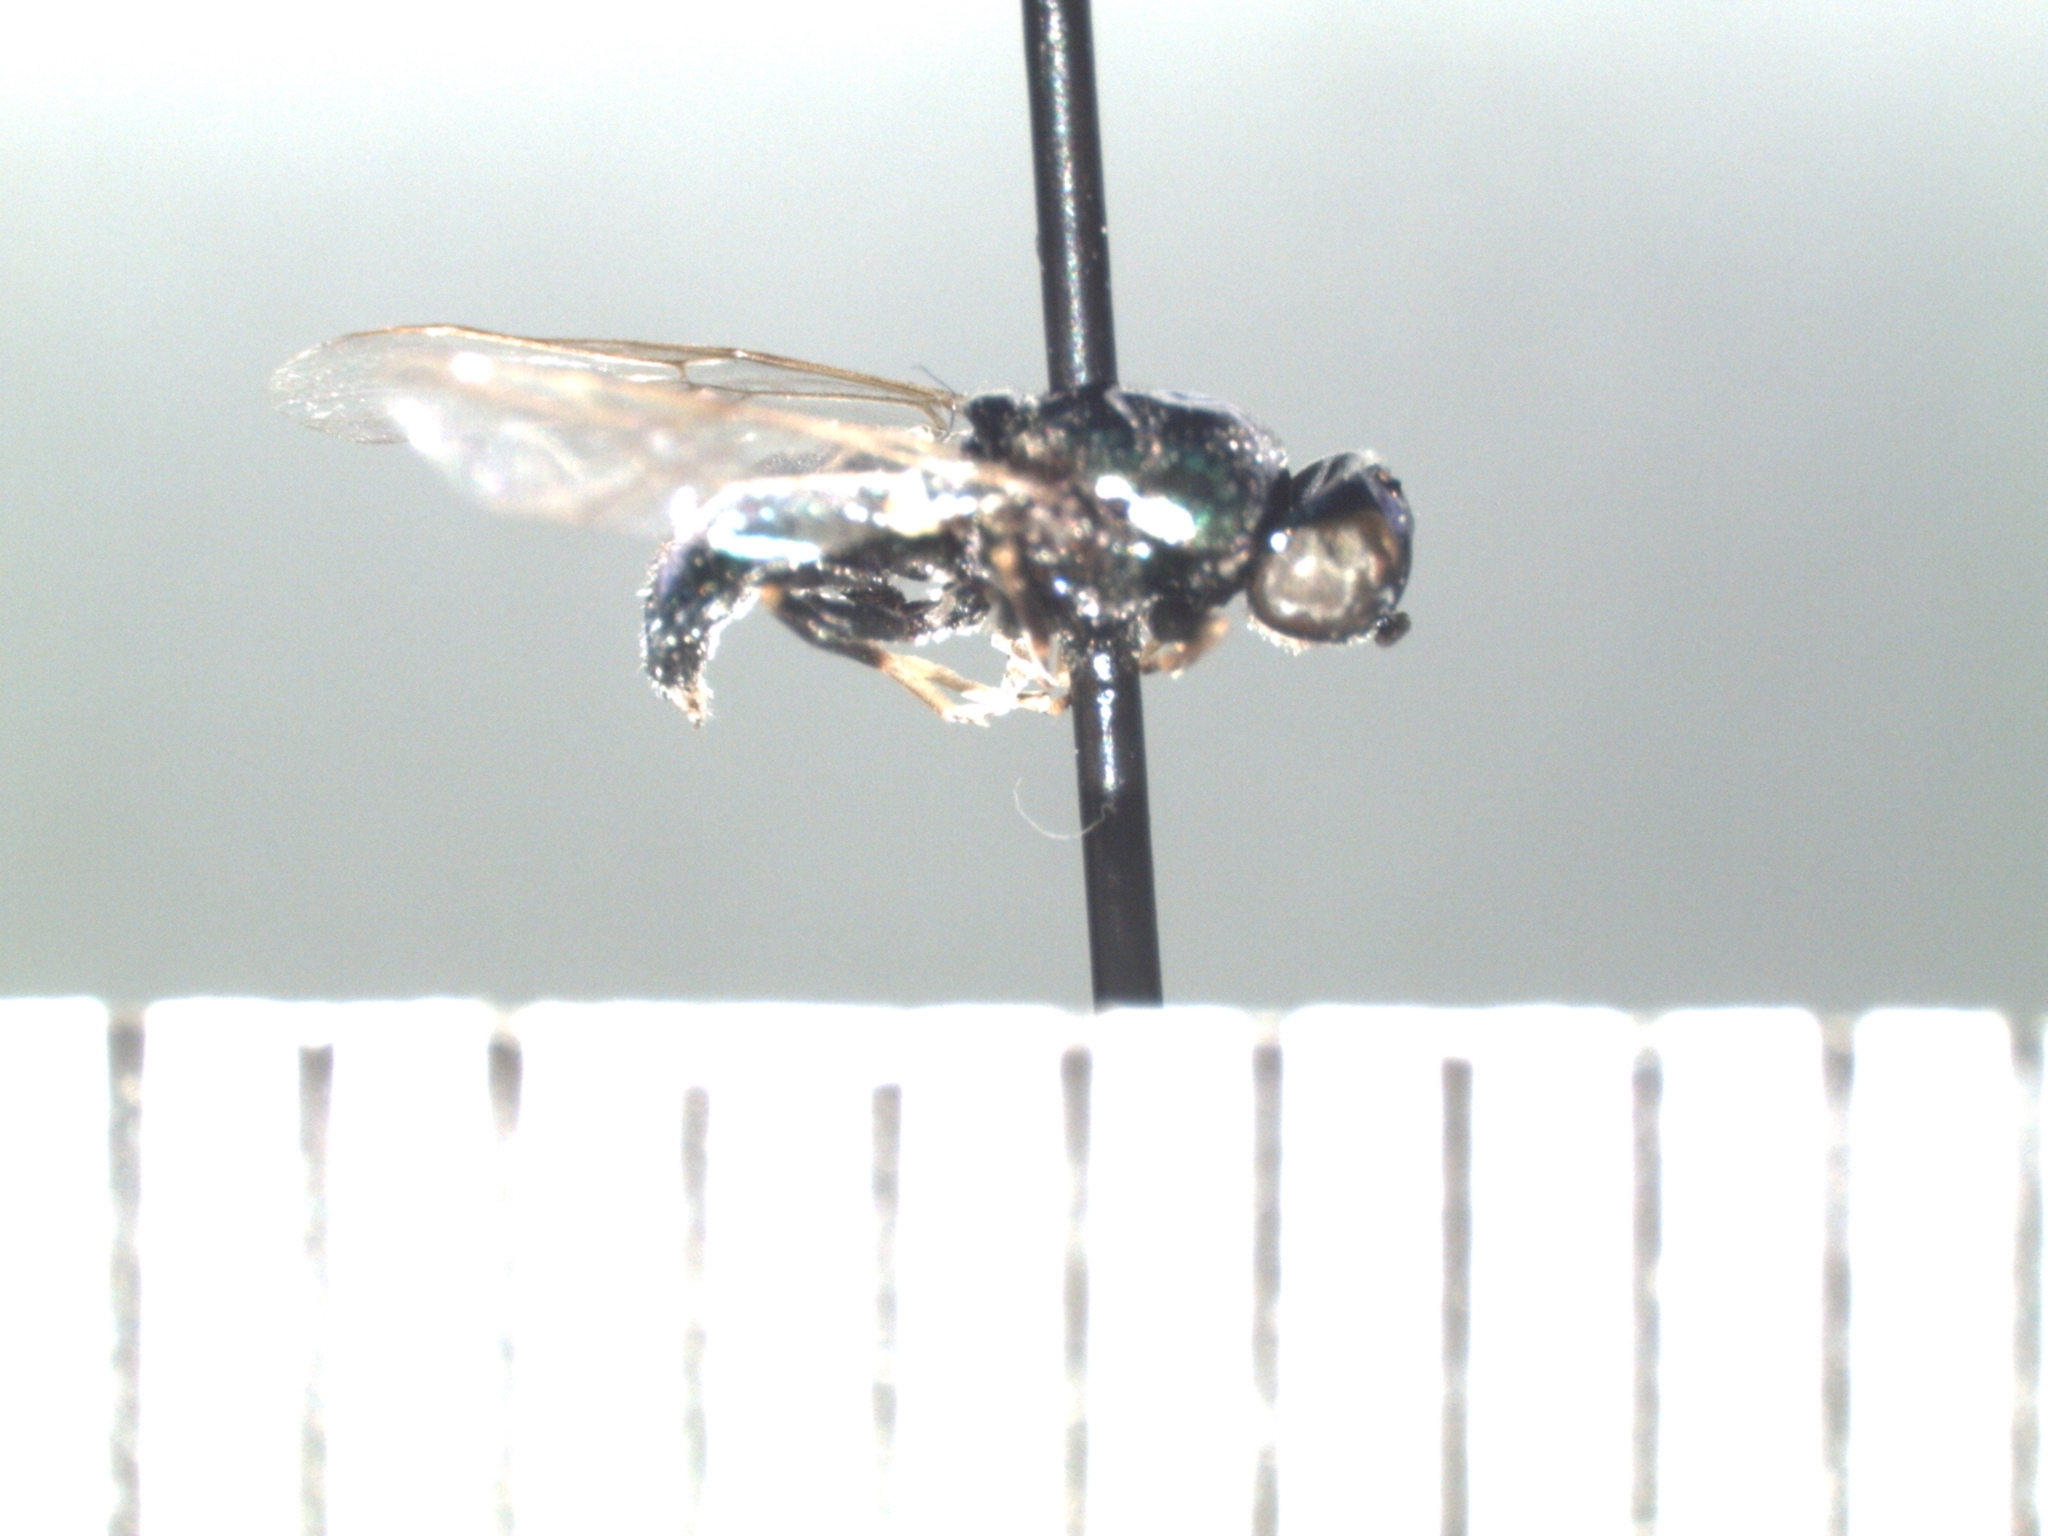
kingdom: Animalia
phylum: Arthropoda
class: Insecta
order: Diptera
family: Stratiomyidae
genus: Microchrysa
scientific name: Microchrysa polita
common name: Black-horned gem
